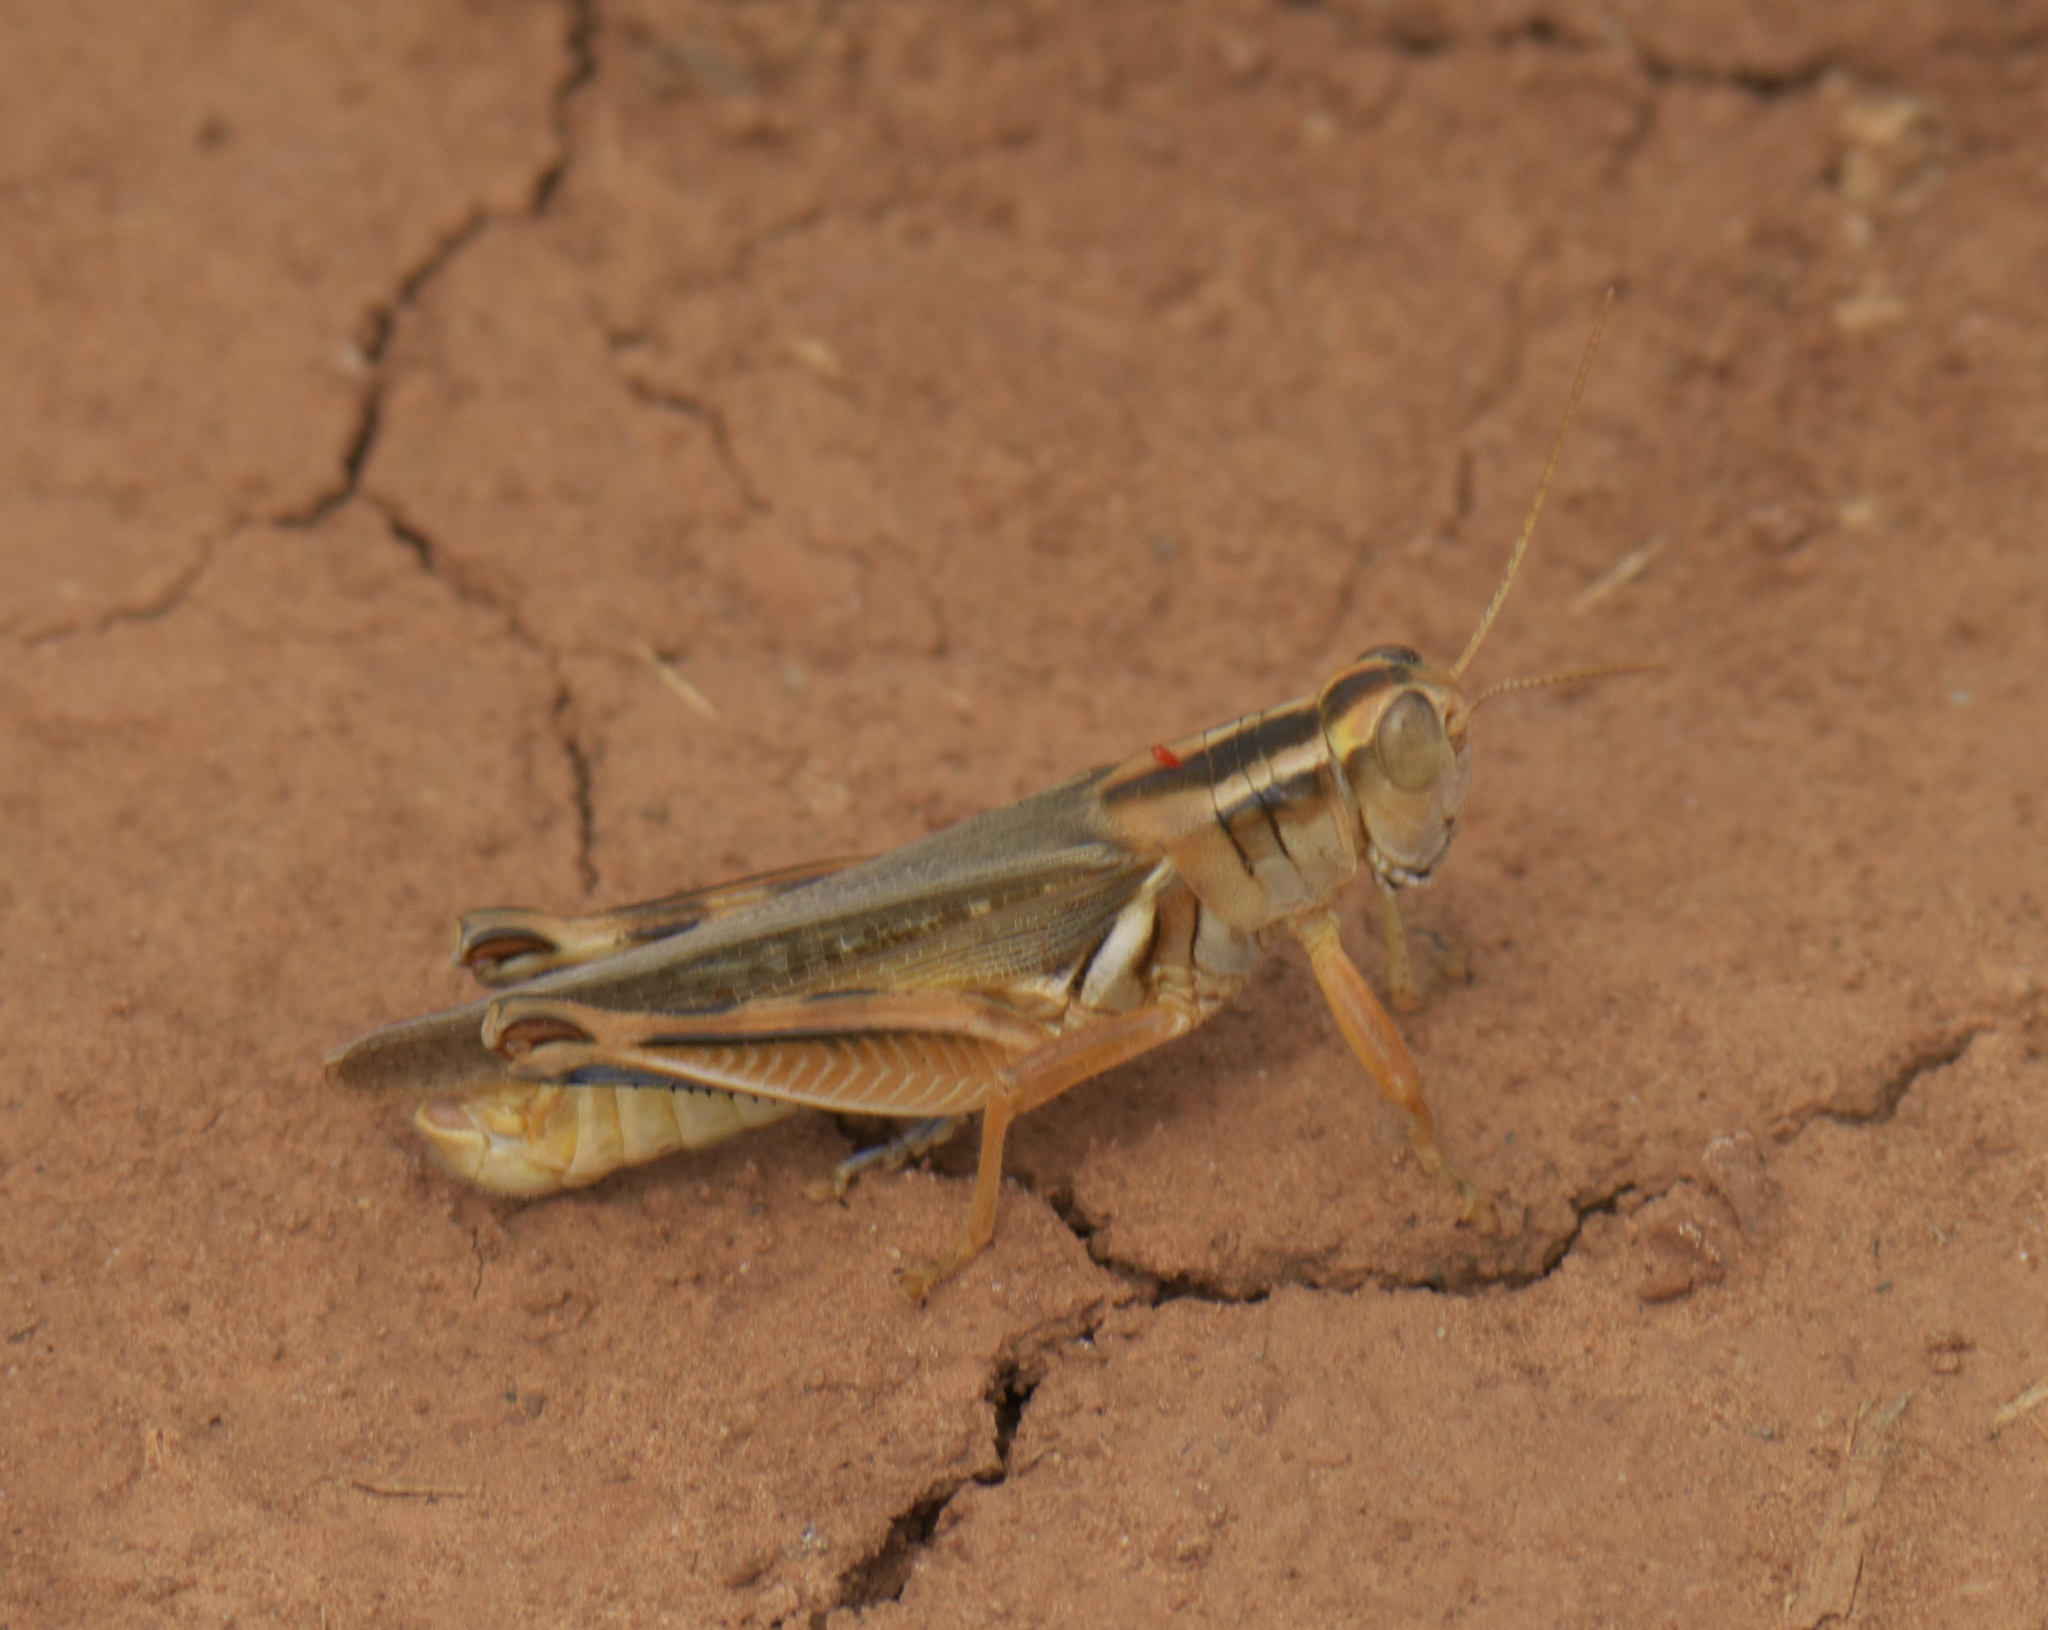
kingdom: Animalia
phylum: Arthropoda
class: Insecta
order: Orthoptera
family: Acrididae
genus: Melanoplus
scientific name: Melanoplus packardii
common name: Packard's grasshopper
